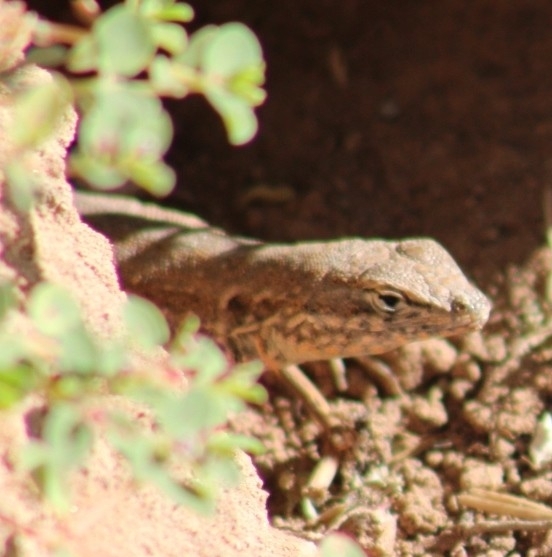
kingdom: Animalia
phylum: Chordata
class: Squamata
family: Phrynosomatidae
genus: Uta
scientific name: Uta stansburiana
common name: Side-blotched lizard
